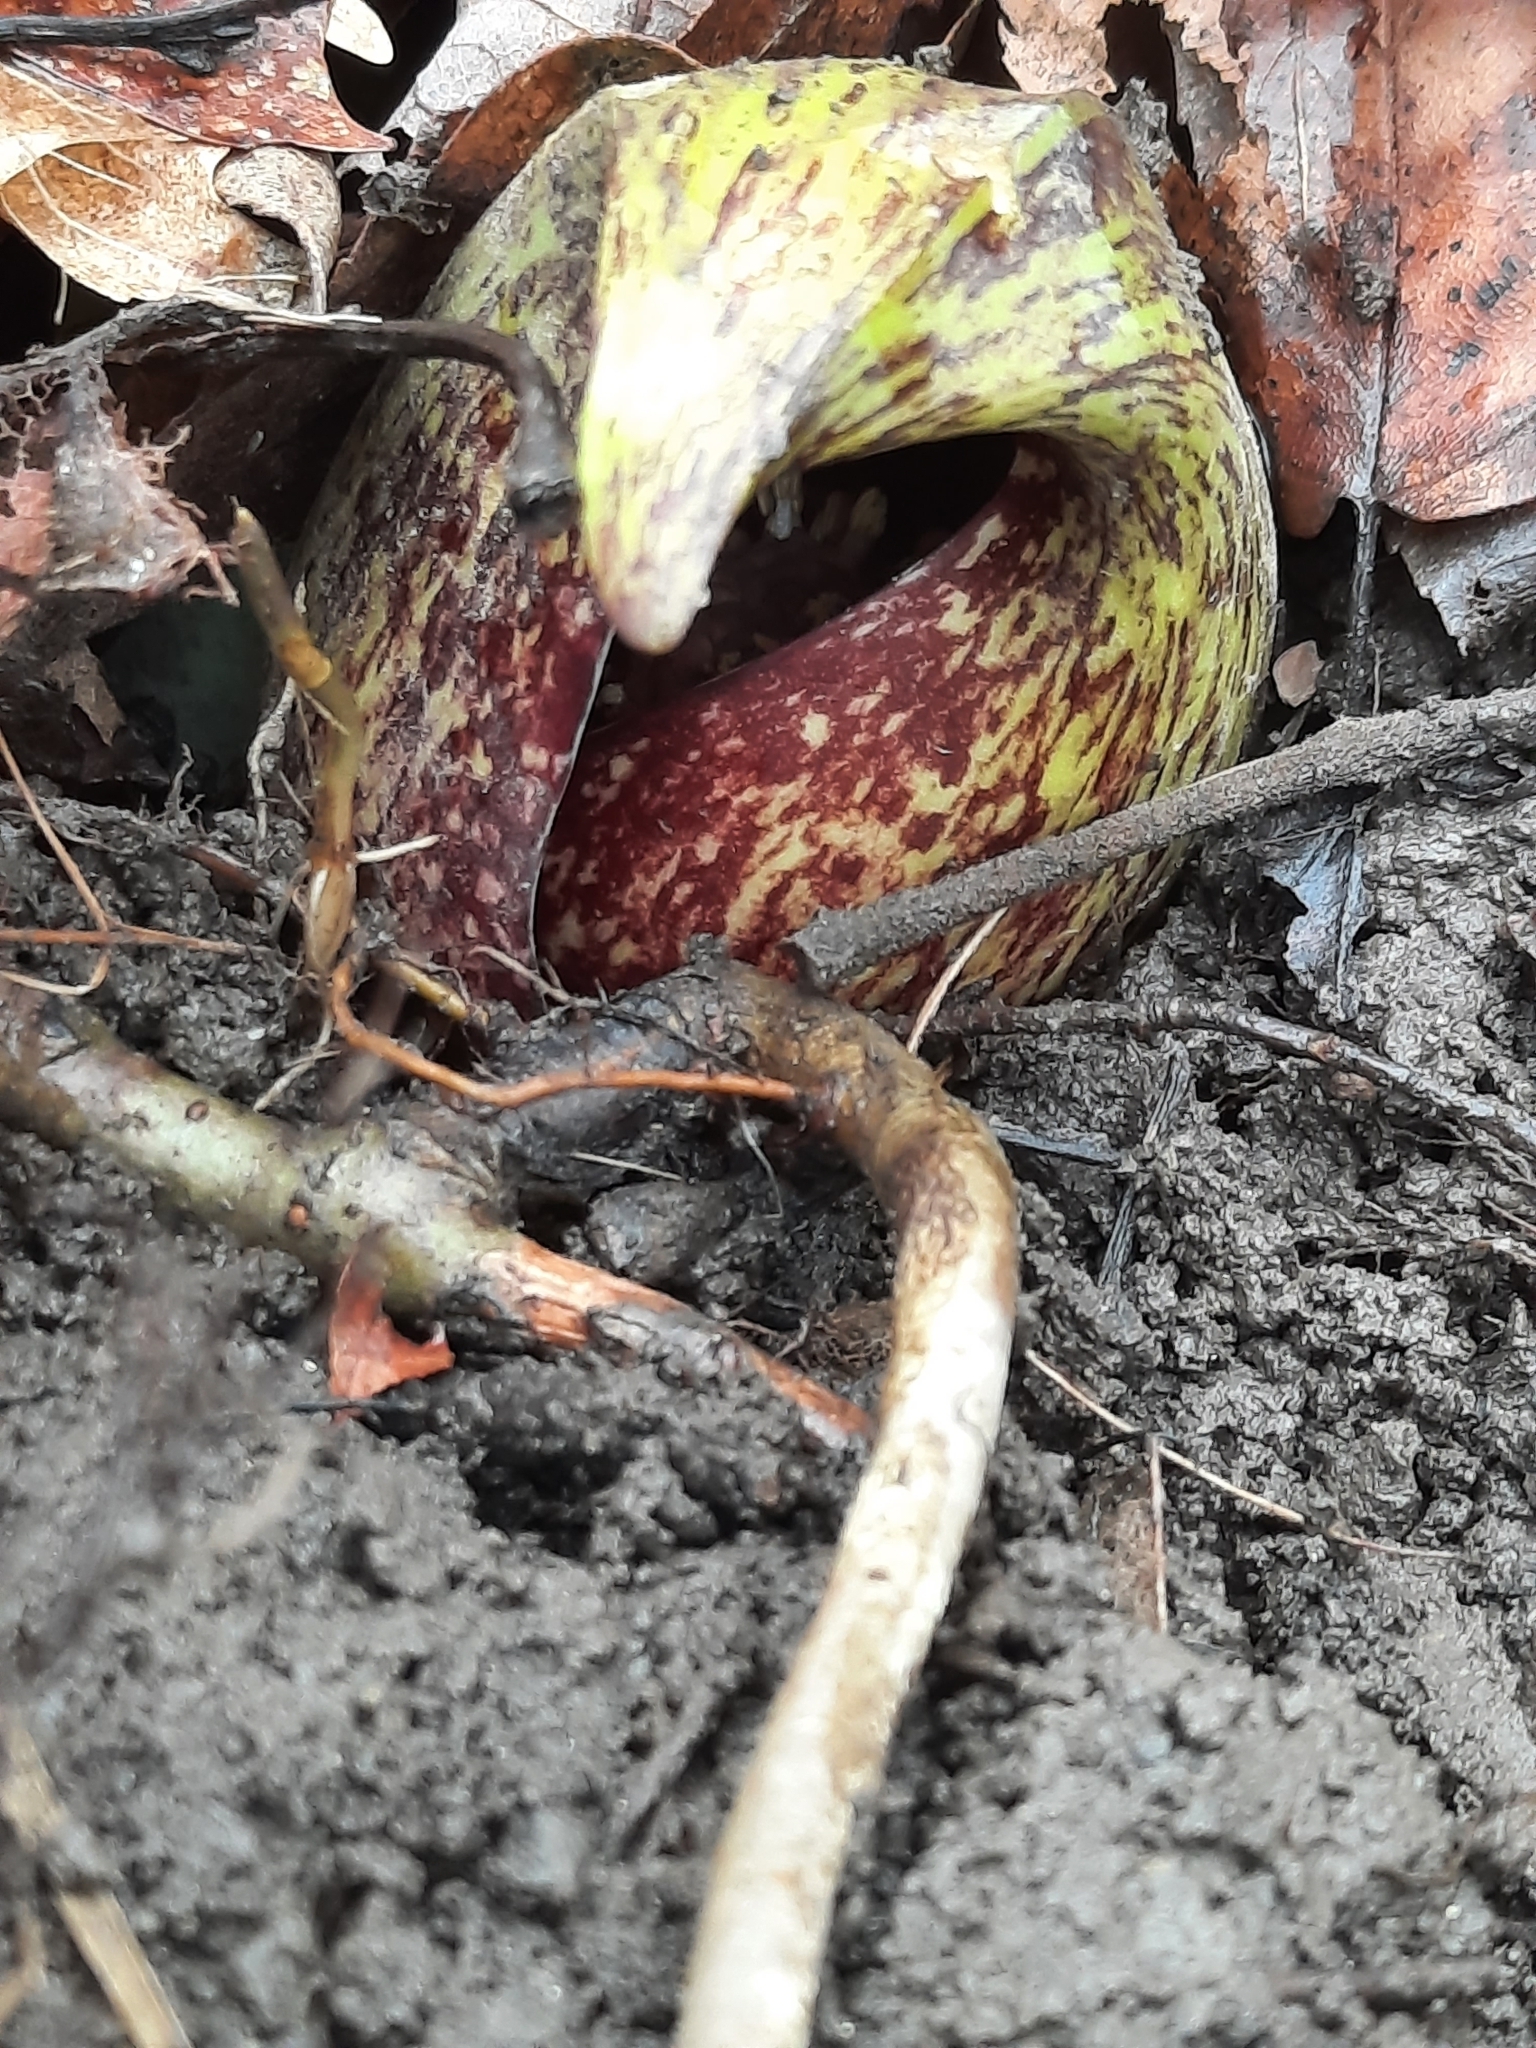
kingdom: Plantae
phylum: Tracheophyta
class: Liliopsida
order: Alismatales
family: Araceae
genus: Symplocarpus
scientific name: Symplocarpus foetidus
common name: Eastern skunk cabbage
